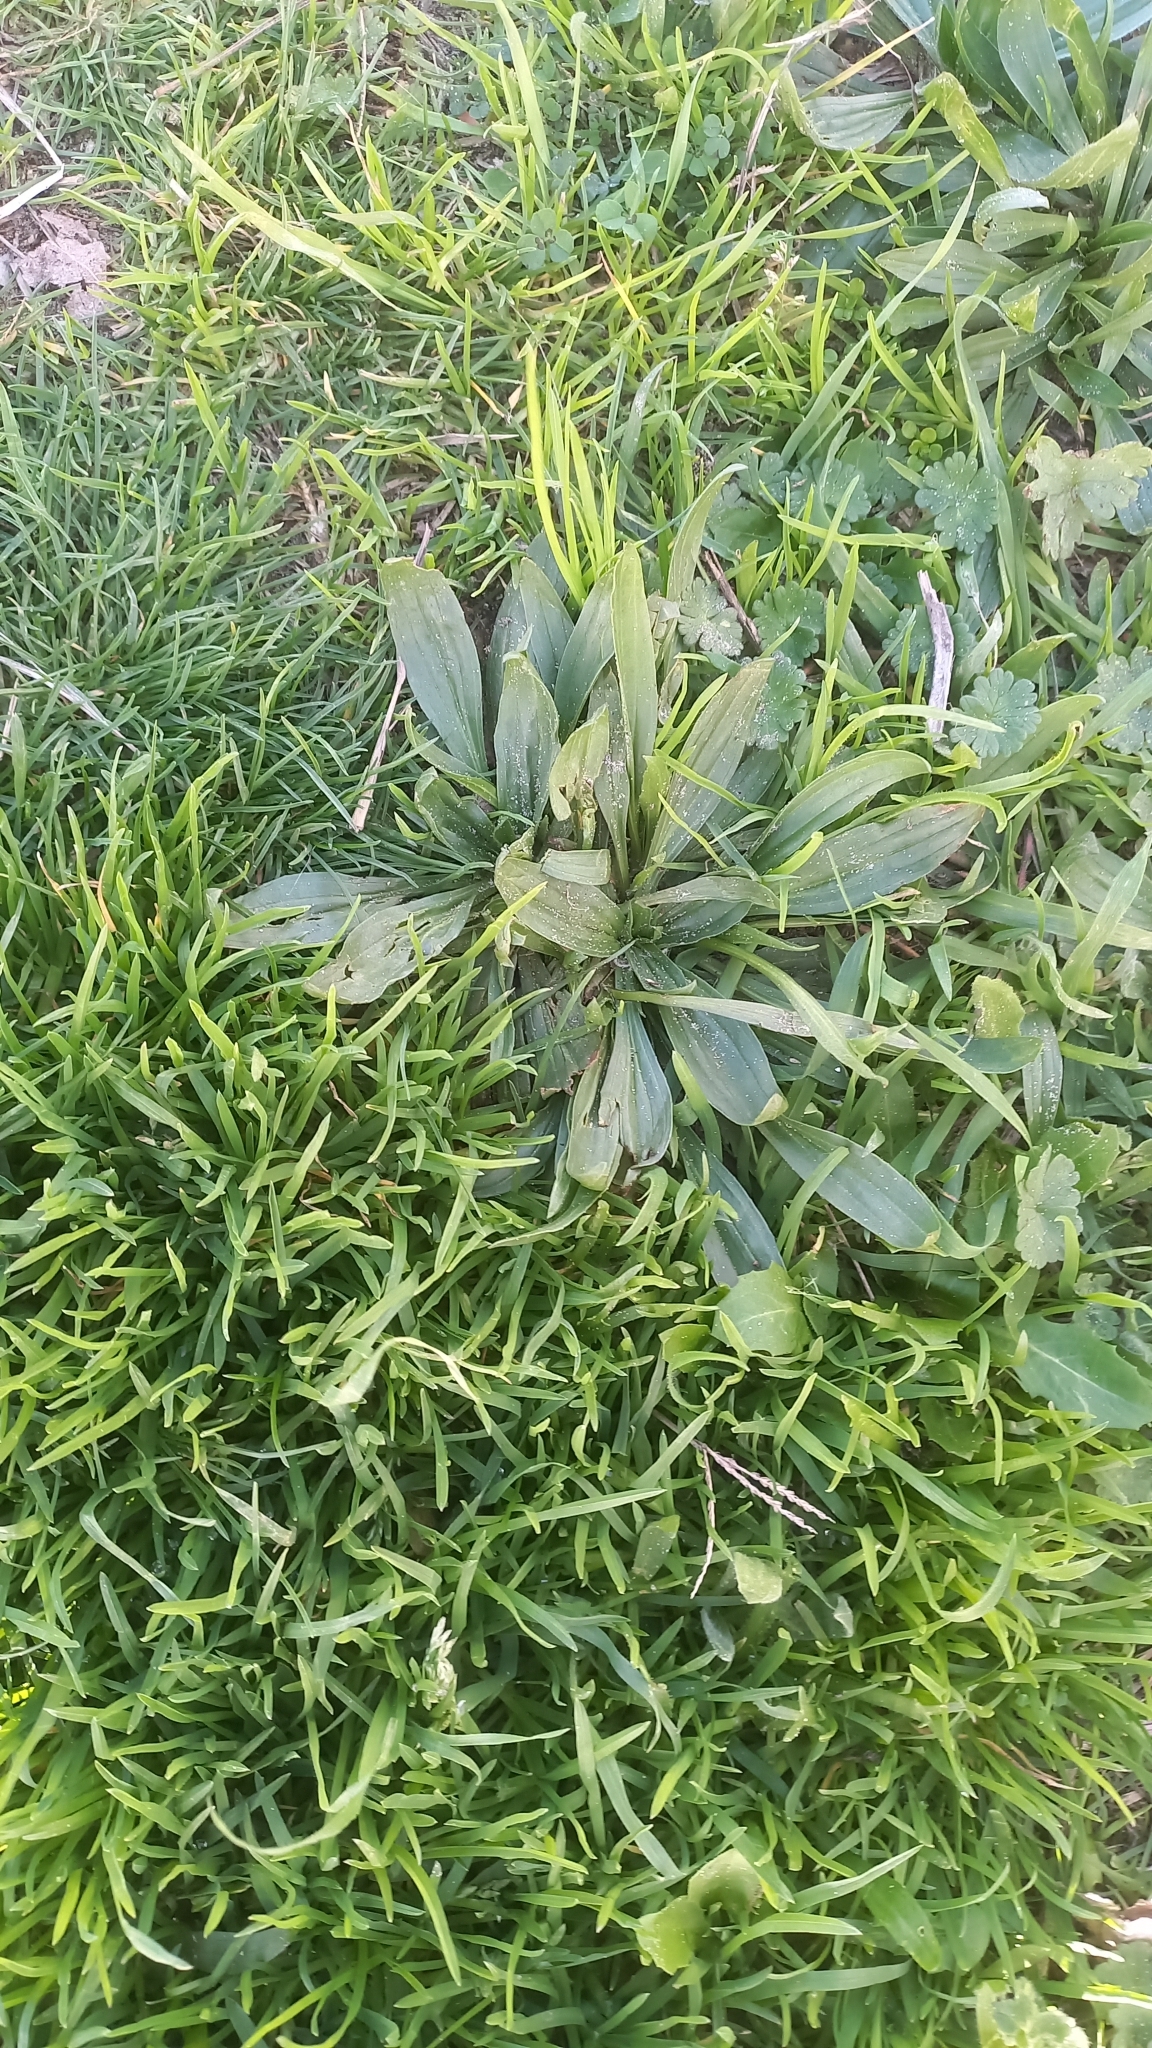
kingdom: Plantae
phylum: Tracheophyta
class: Magnoliopsida
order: Lamiales
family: Plantaginaceae
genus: Plantago
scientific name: Plantago lanceolata
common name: Ribwort plantain
